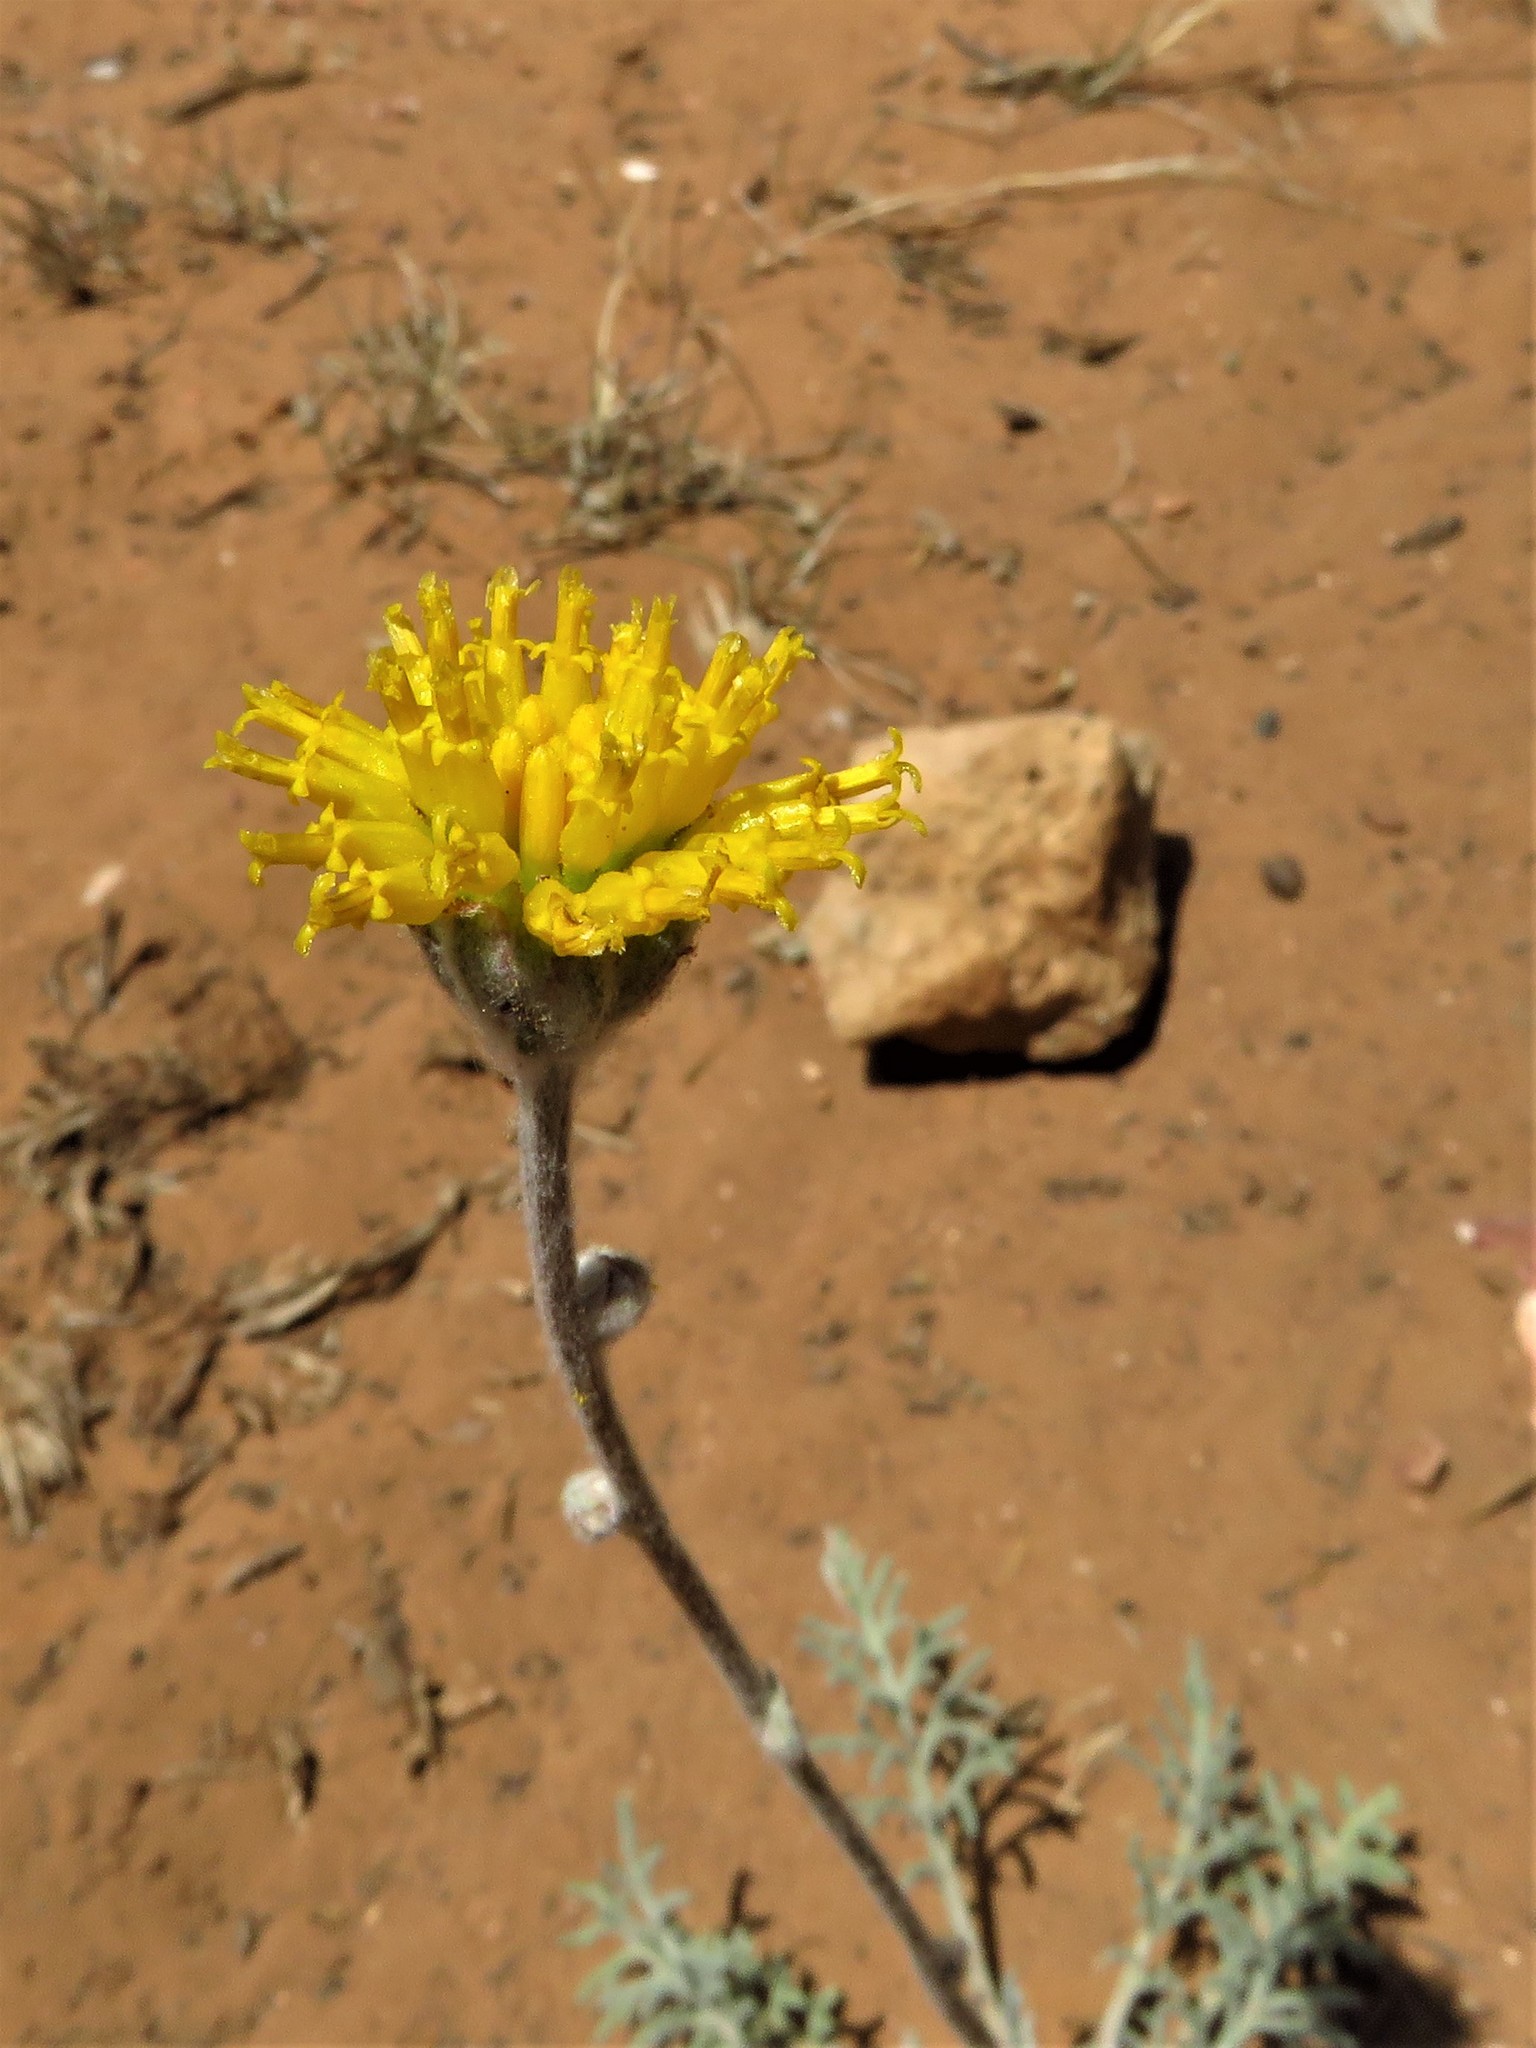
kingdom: Plantae
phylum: Tracheophyta
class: Magnoliopsida
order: Asterales
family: Asteraceae
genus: Hymenopappus
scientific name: Hymenopappus filifolius
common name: Columbia cutleaf
